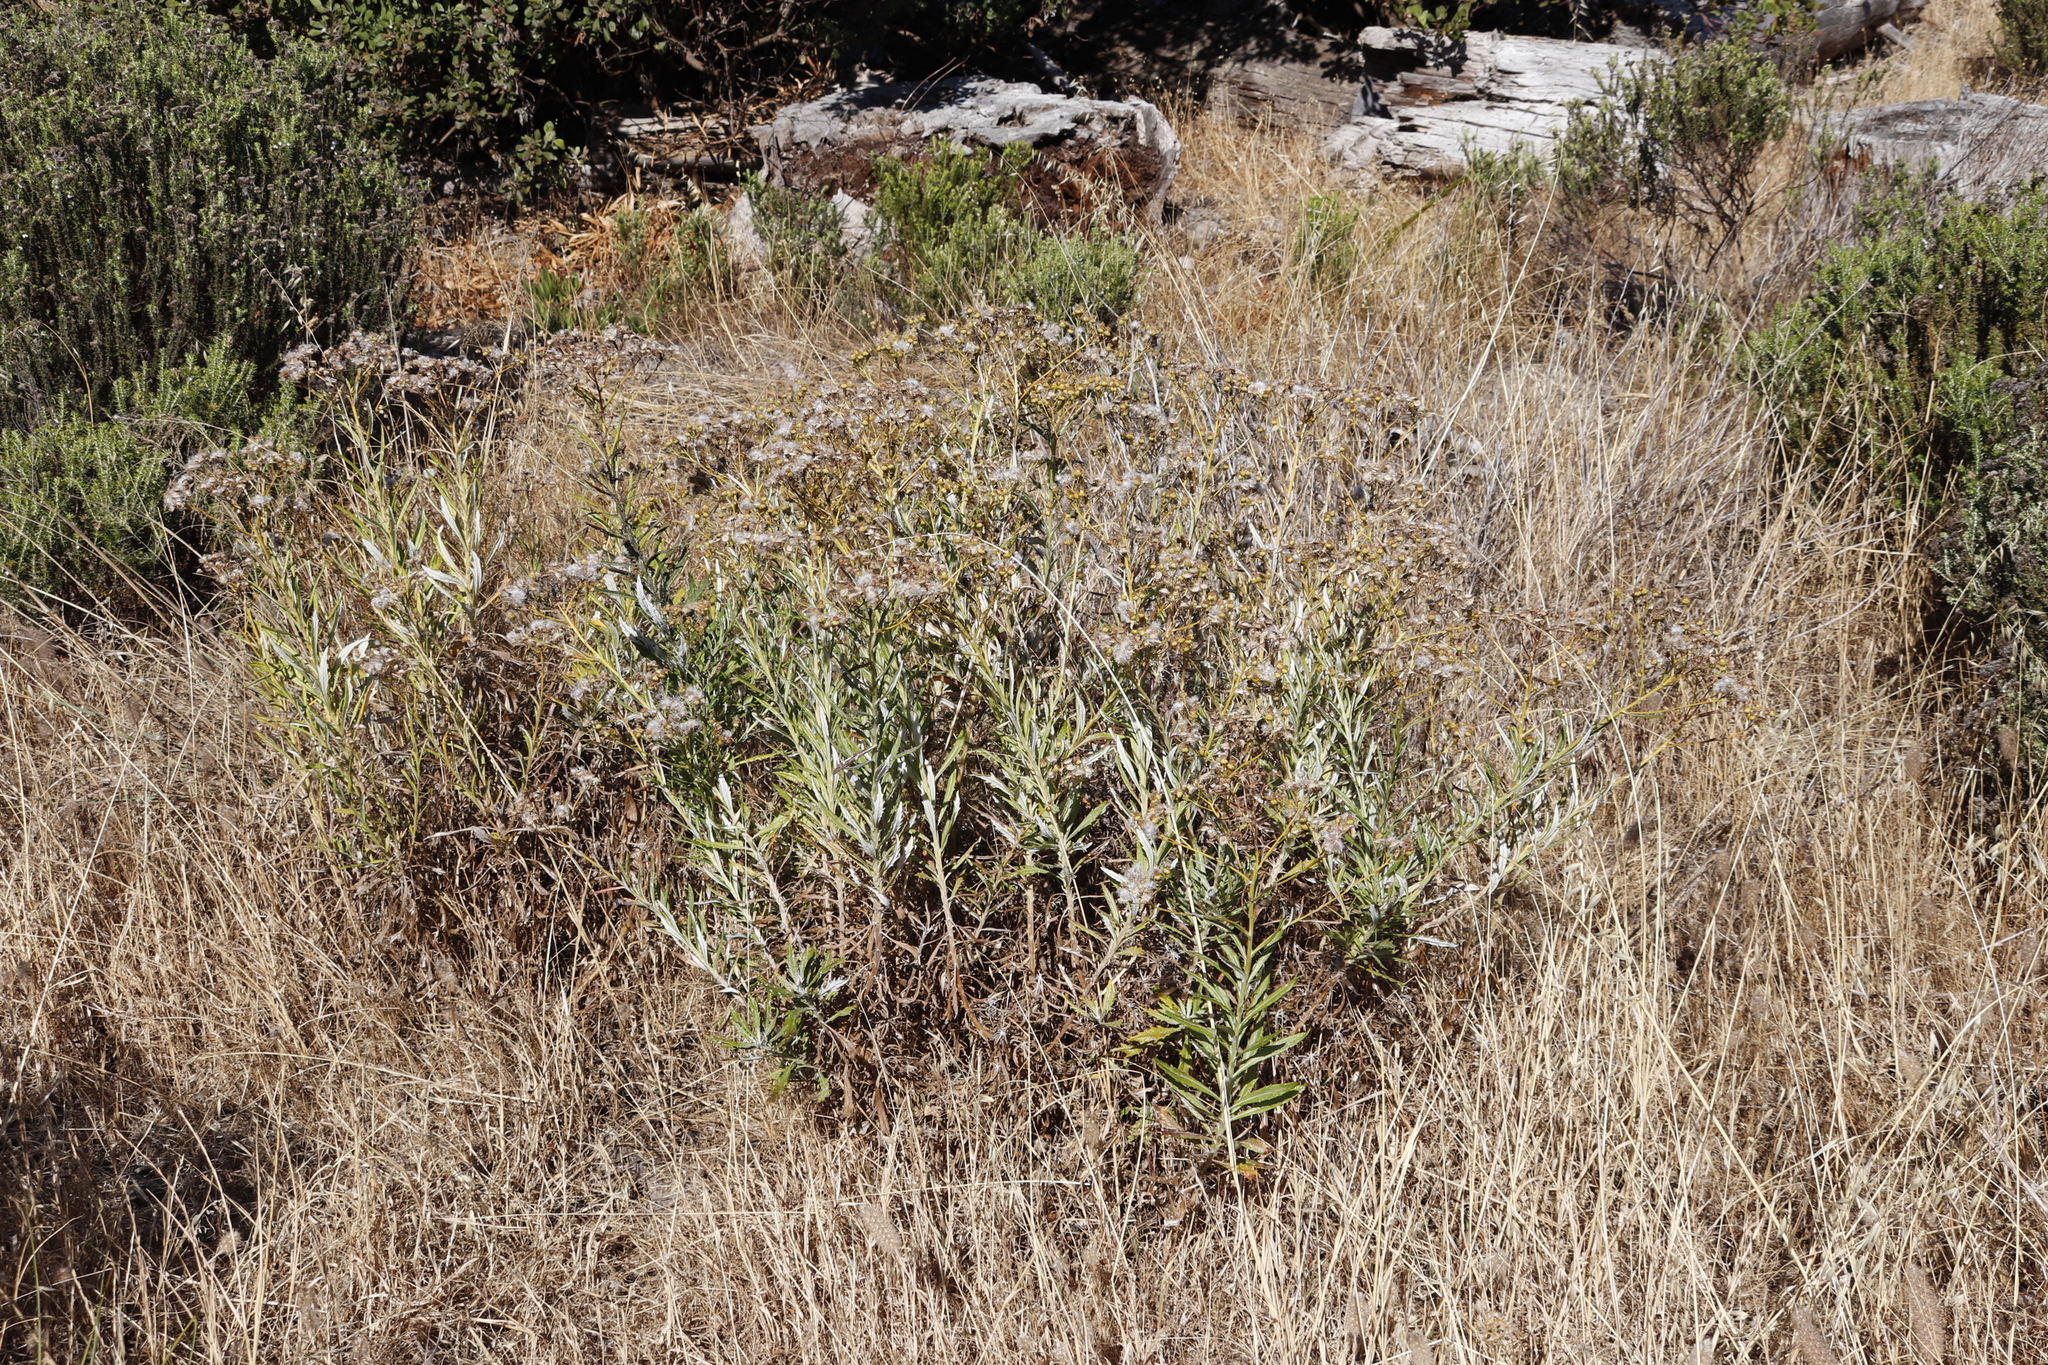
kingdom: Plantae
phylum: Tracheophyta
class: Magnoliopsida
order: Asterales
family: Asteraceae
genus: Senecio
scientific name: Senecio pterophorus
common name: Shoddy ragwort
